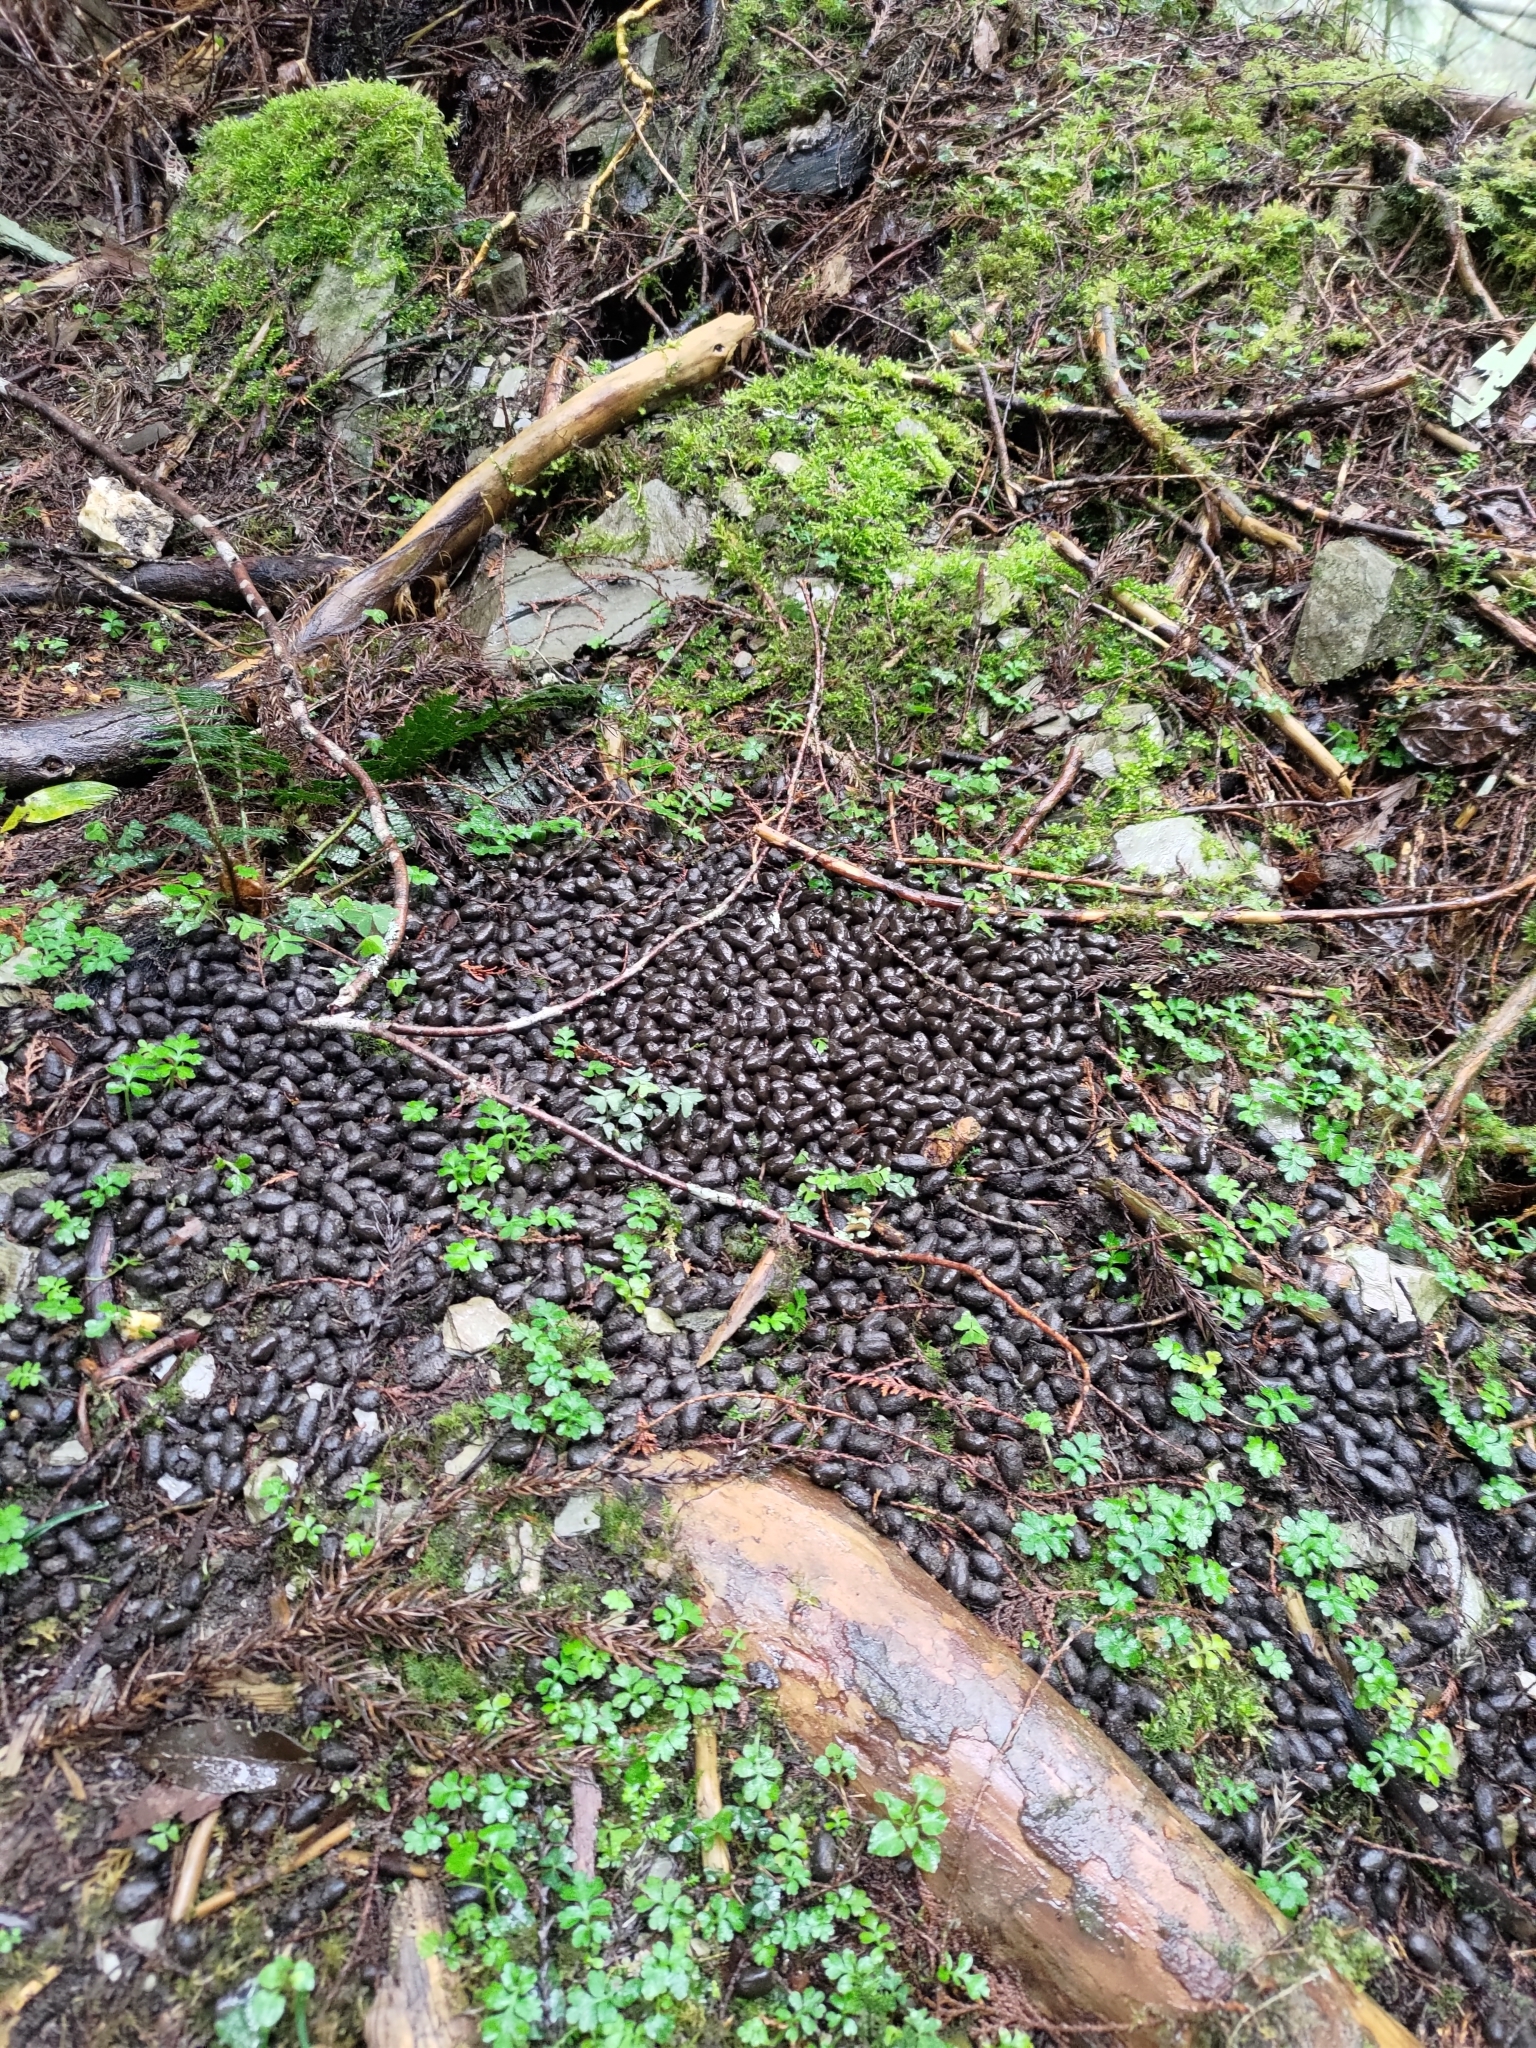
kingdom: Animalia
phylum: Chordata
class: Mammalia
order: Artiodactyla
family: Bovidae
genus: Capricornis
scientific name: Capricornis swinhoei
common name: Formosan serow
